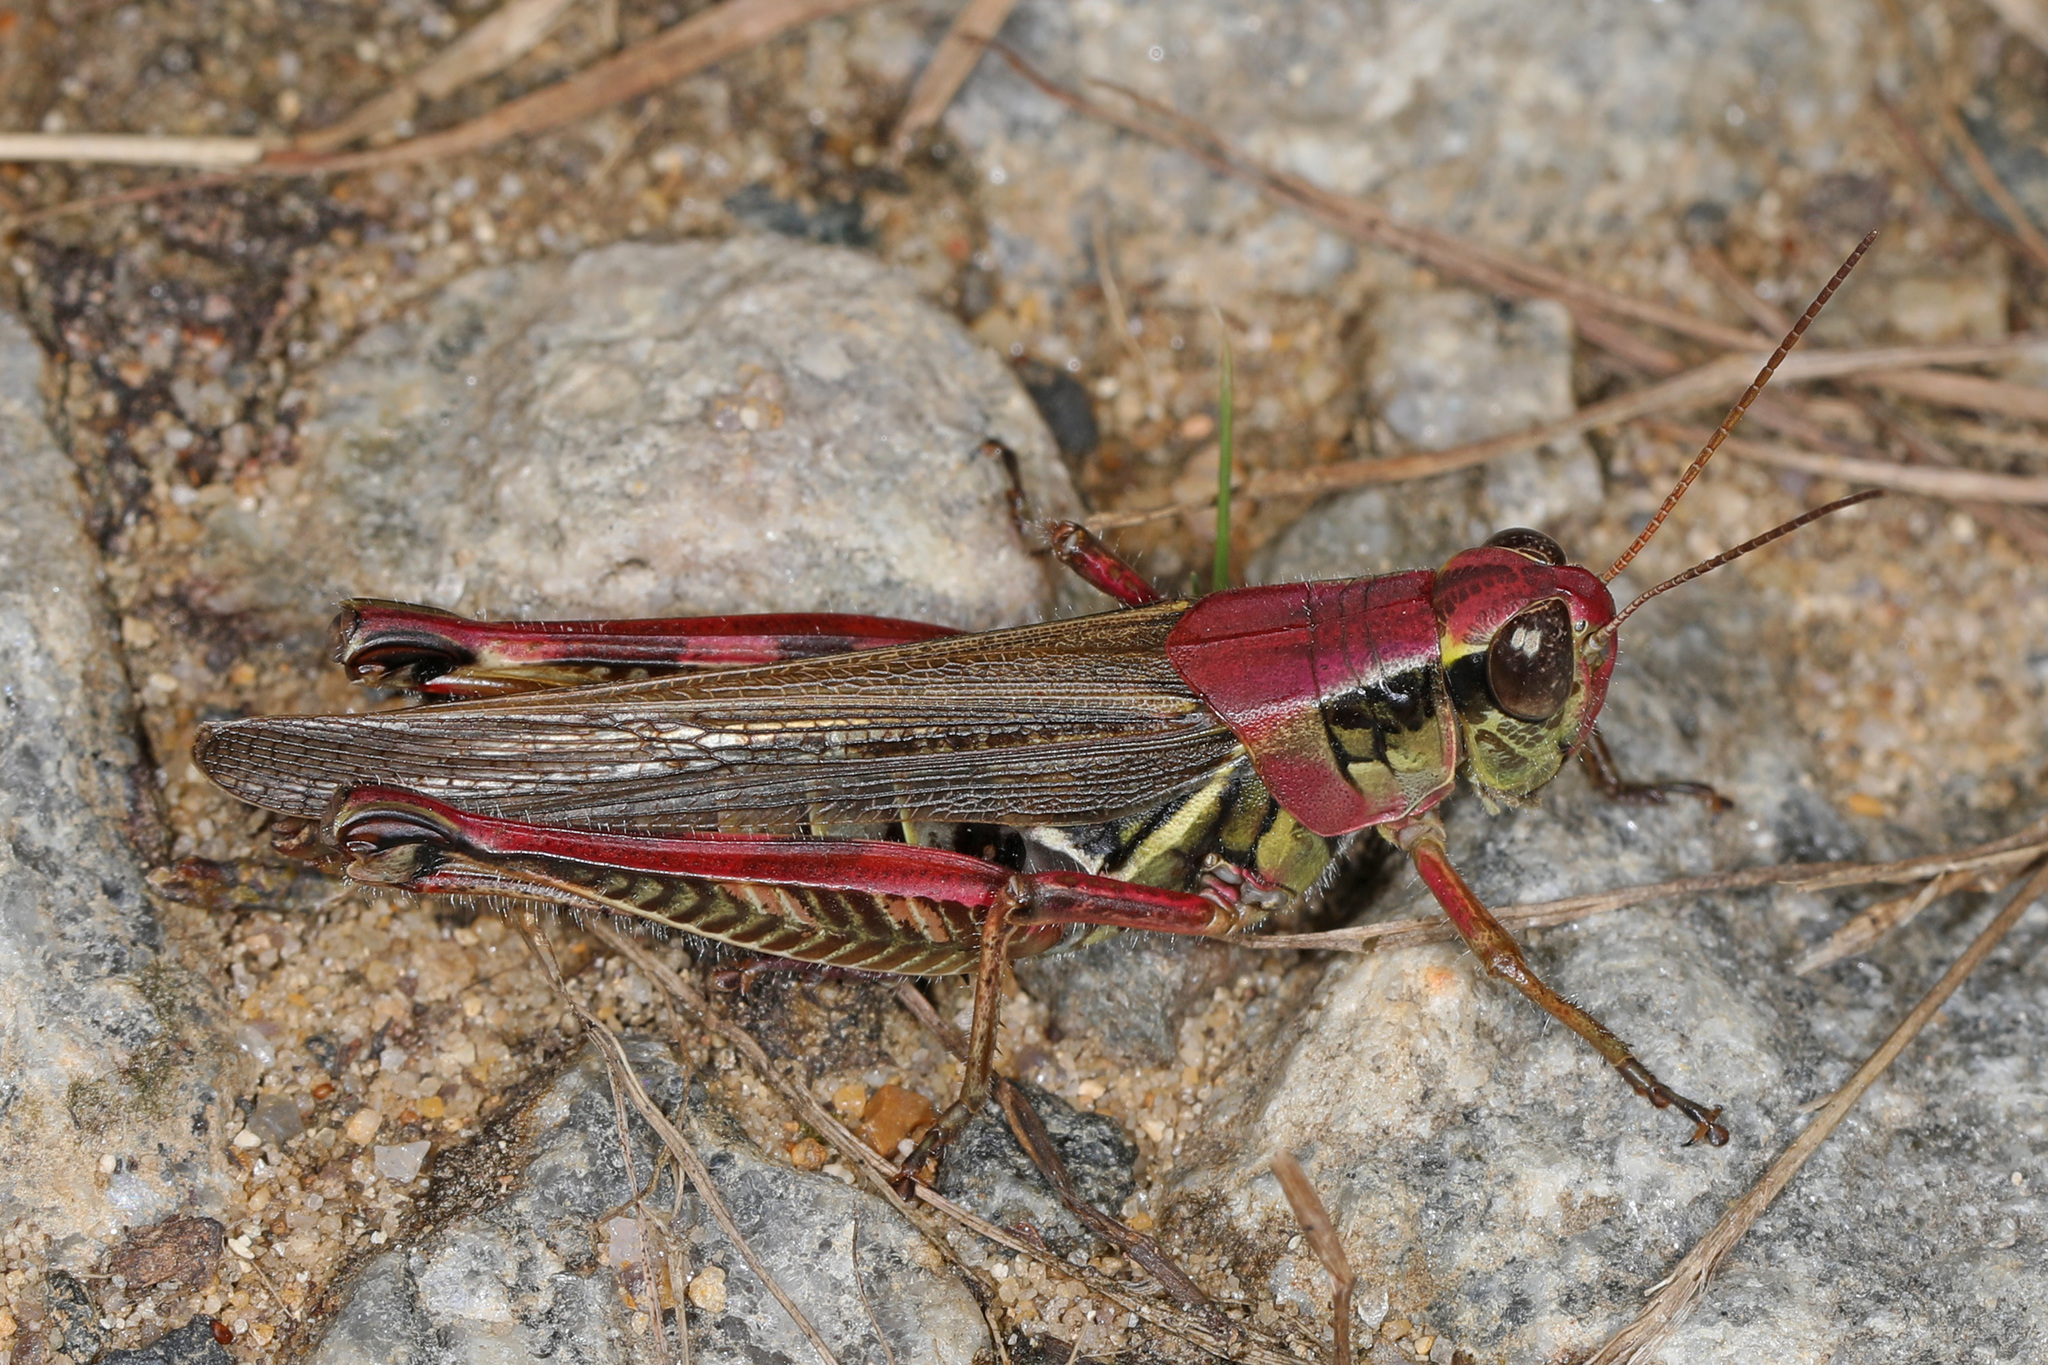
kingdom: Animalia
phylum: Arthropoda
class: Insecta
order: Orthoptera
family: Acrididae
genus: Melanoplus
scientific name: Melanoplus femurrubrum
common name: Red-legged grasshopper
